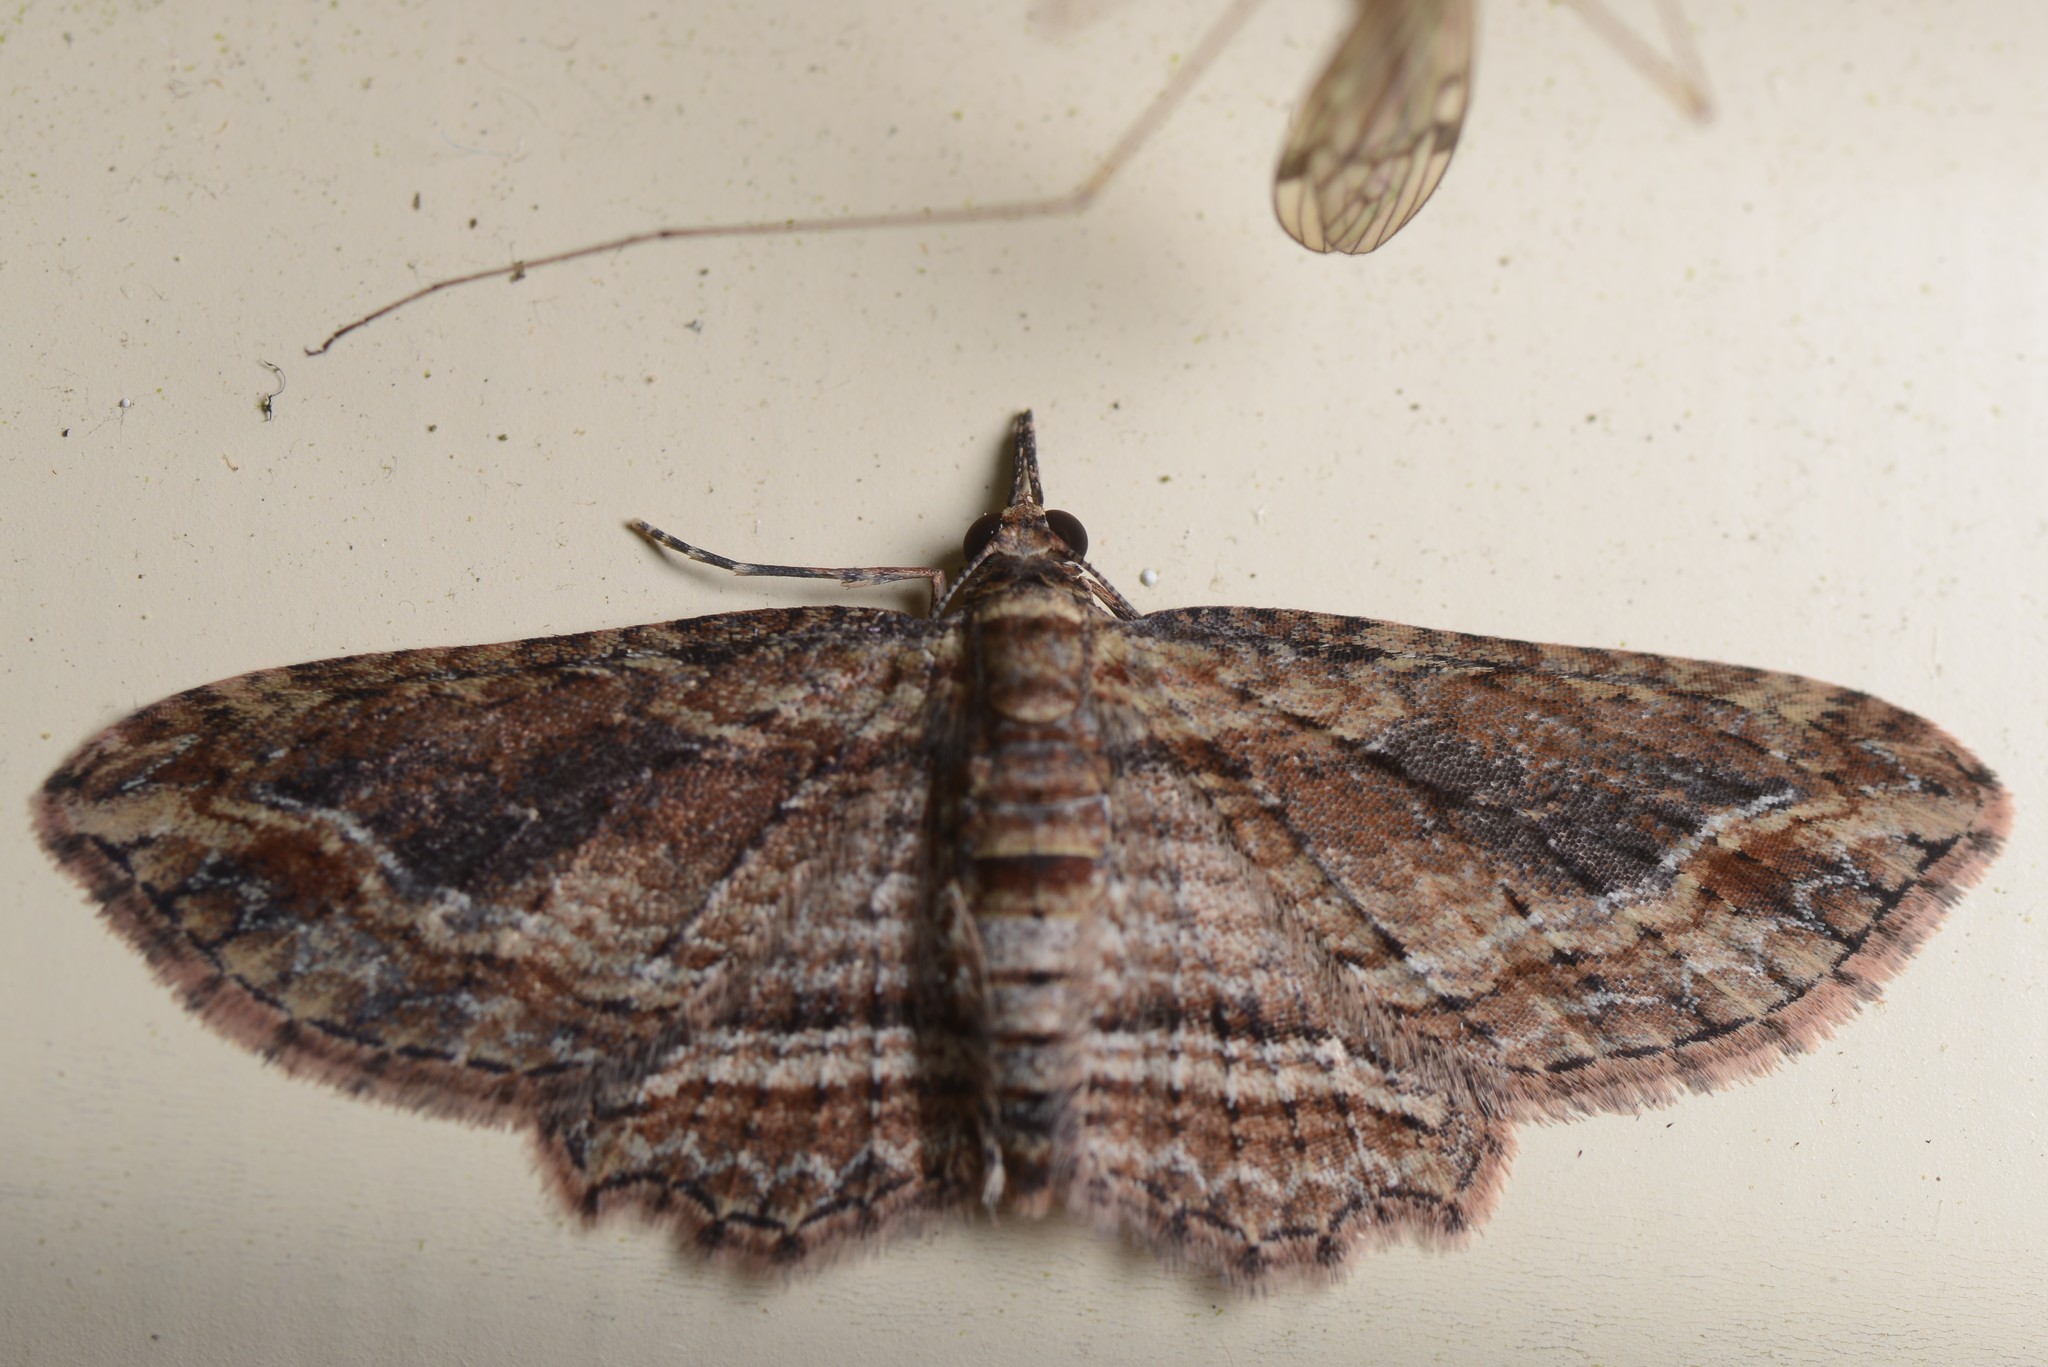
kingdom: Animalia
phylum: Arthropoda
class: Insecta
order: Lepidoptera
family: Geometridae
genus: Chloroclystis
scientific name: Chloroclystis filata
